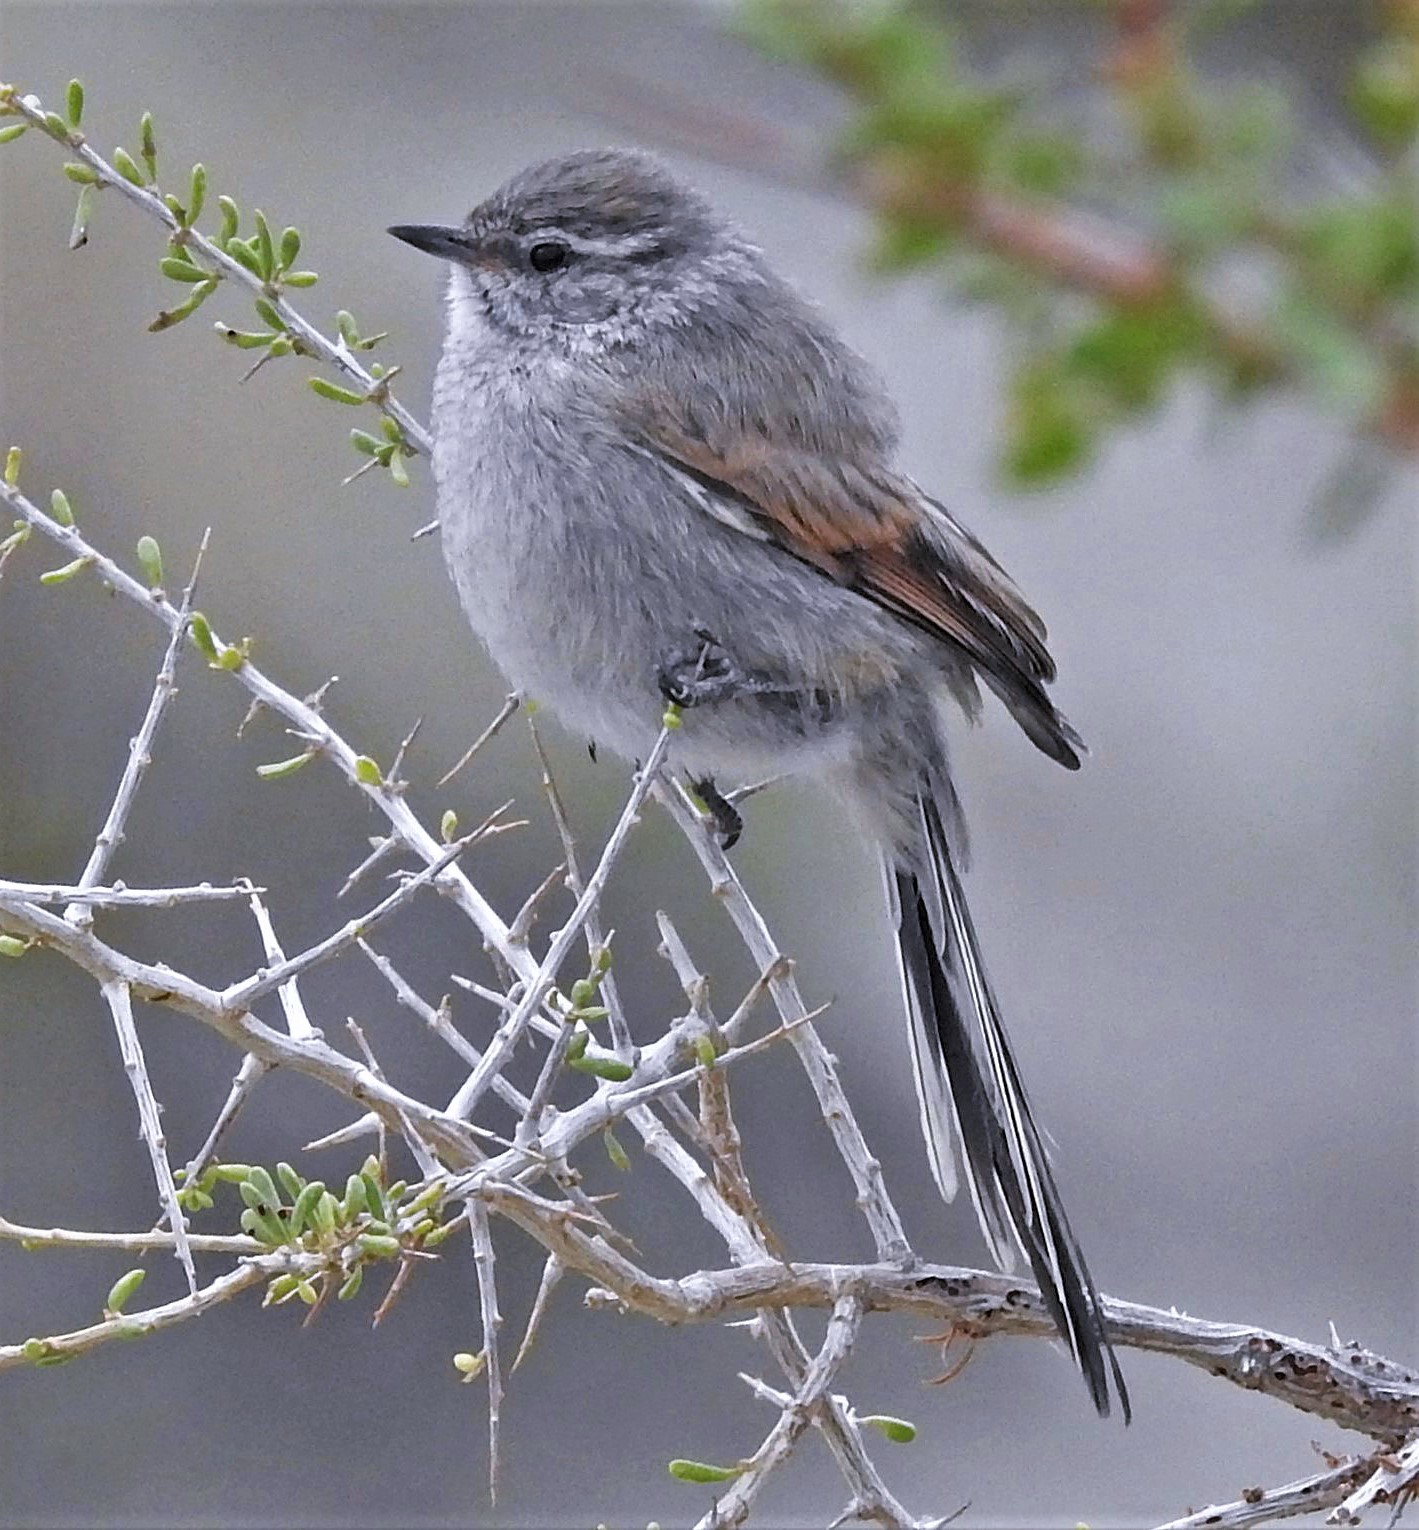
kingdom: Animalia
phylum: Chordata
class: Aves
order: Passeriformes
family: Furnariidae
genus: Leptasthenura
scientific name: Leptasthenura aegithaloides
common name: Plain-mantled tit-spinetail
